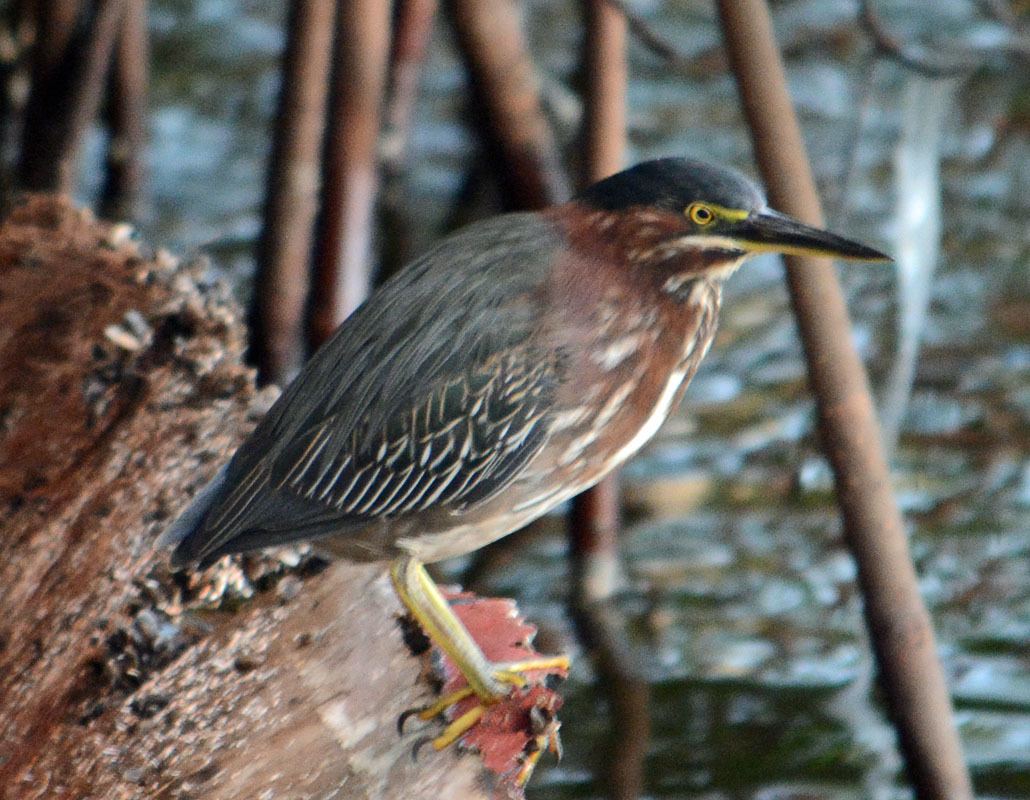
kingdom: Animalia
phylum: Chordata
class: Aves
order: Pelecaniformes
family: Ardeidae
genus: Butorides
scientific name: Butorides virescens
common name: Green heron
